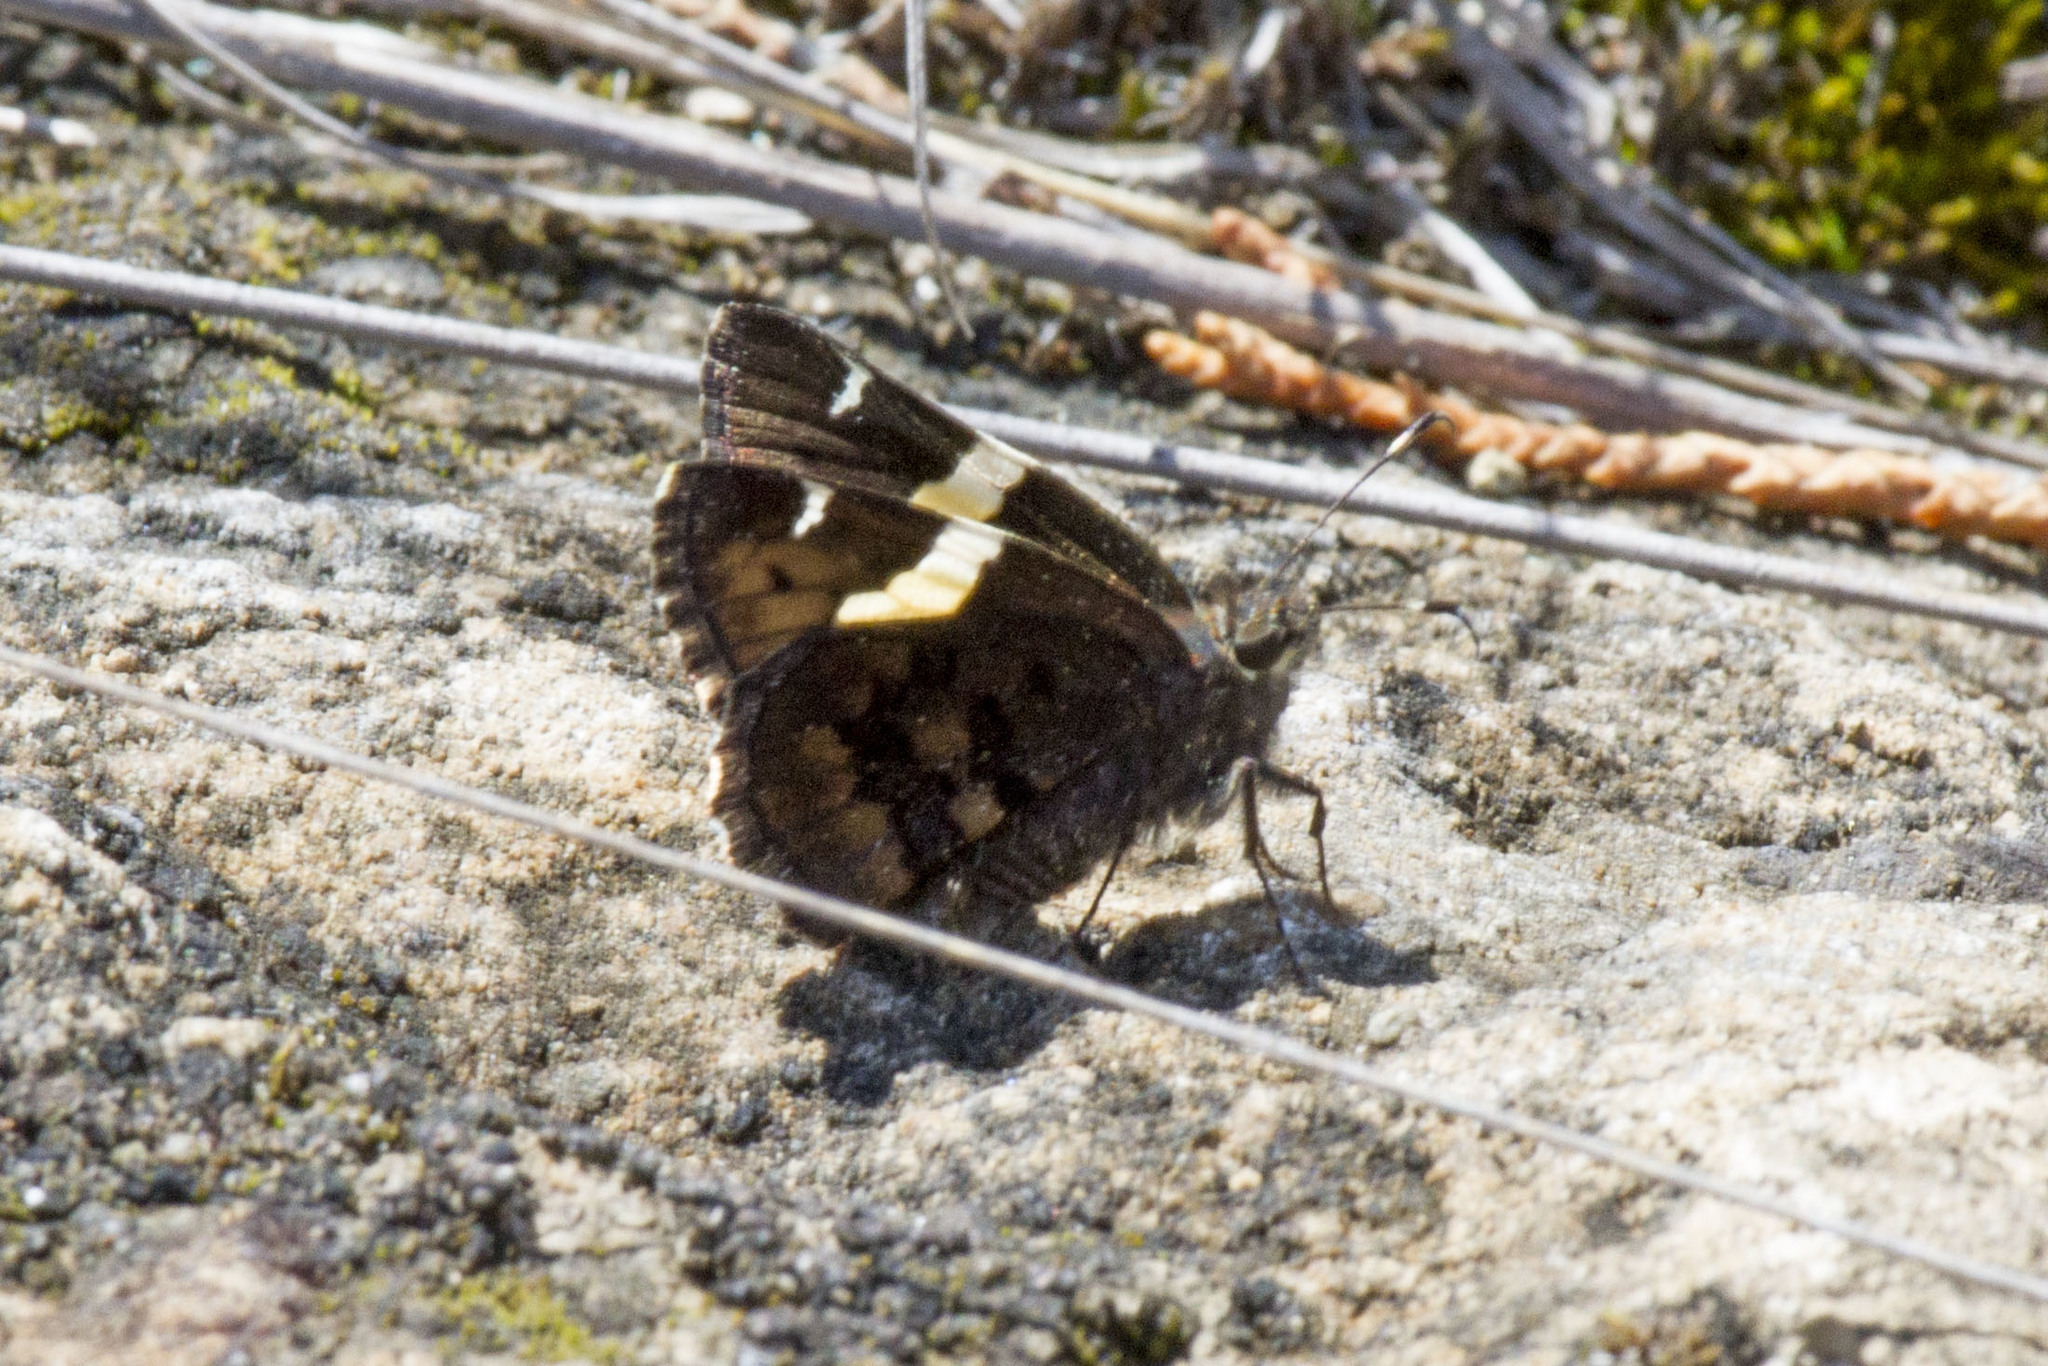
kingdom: Animalia
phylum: Arthropoda
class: Insecta
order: Lepidoptera
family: Hesperiidae
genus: Thorybes
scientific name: Thorybes pseudocellus
